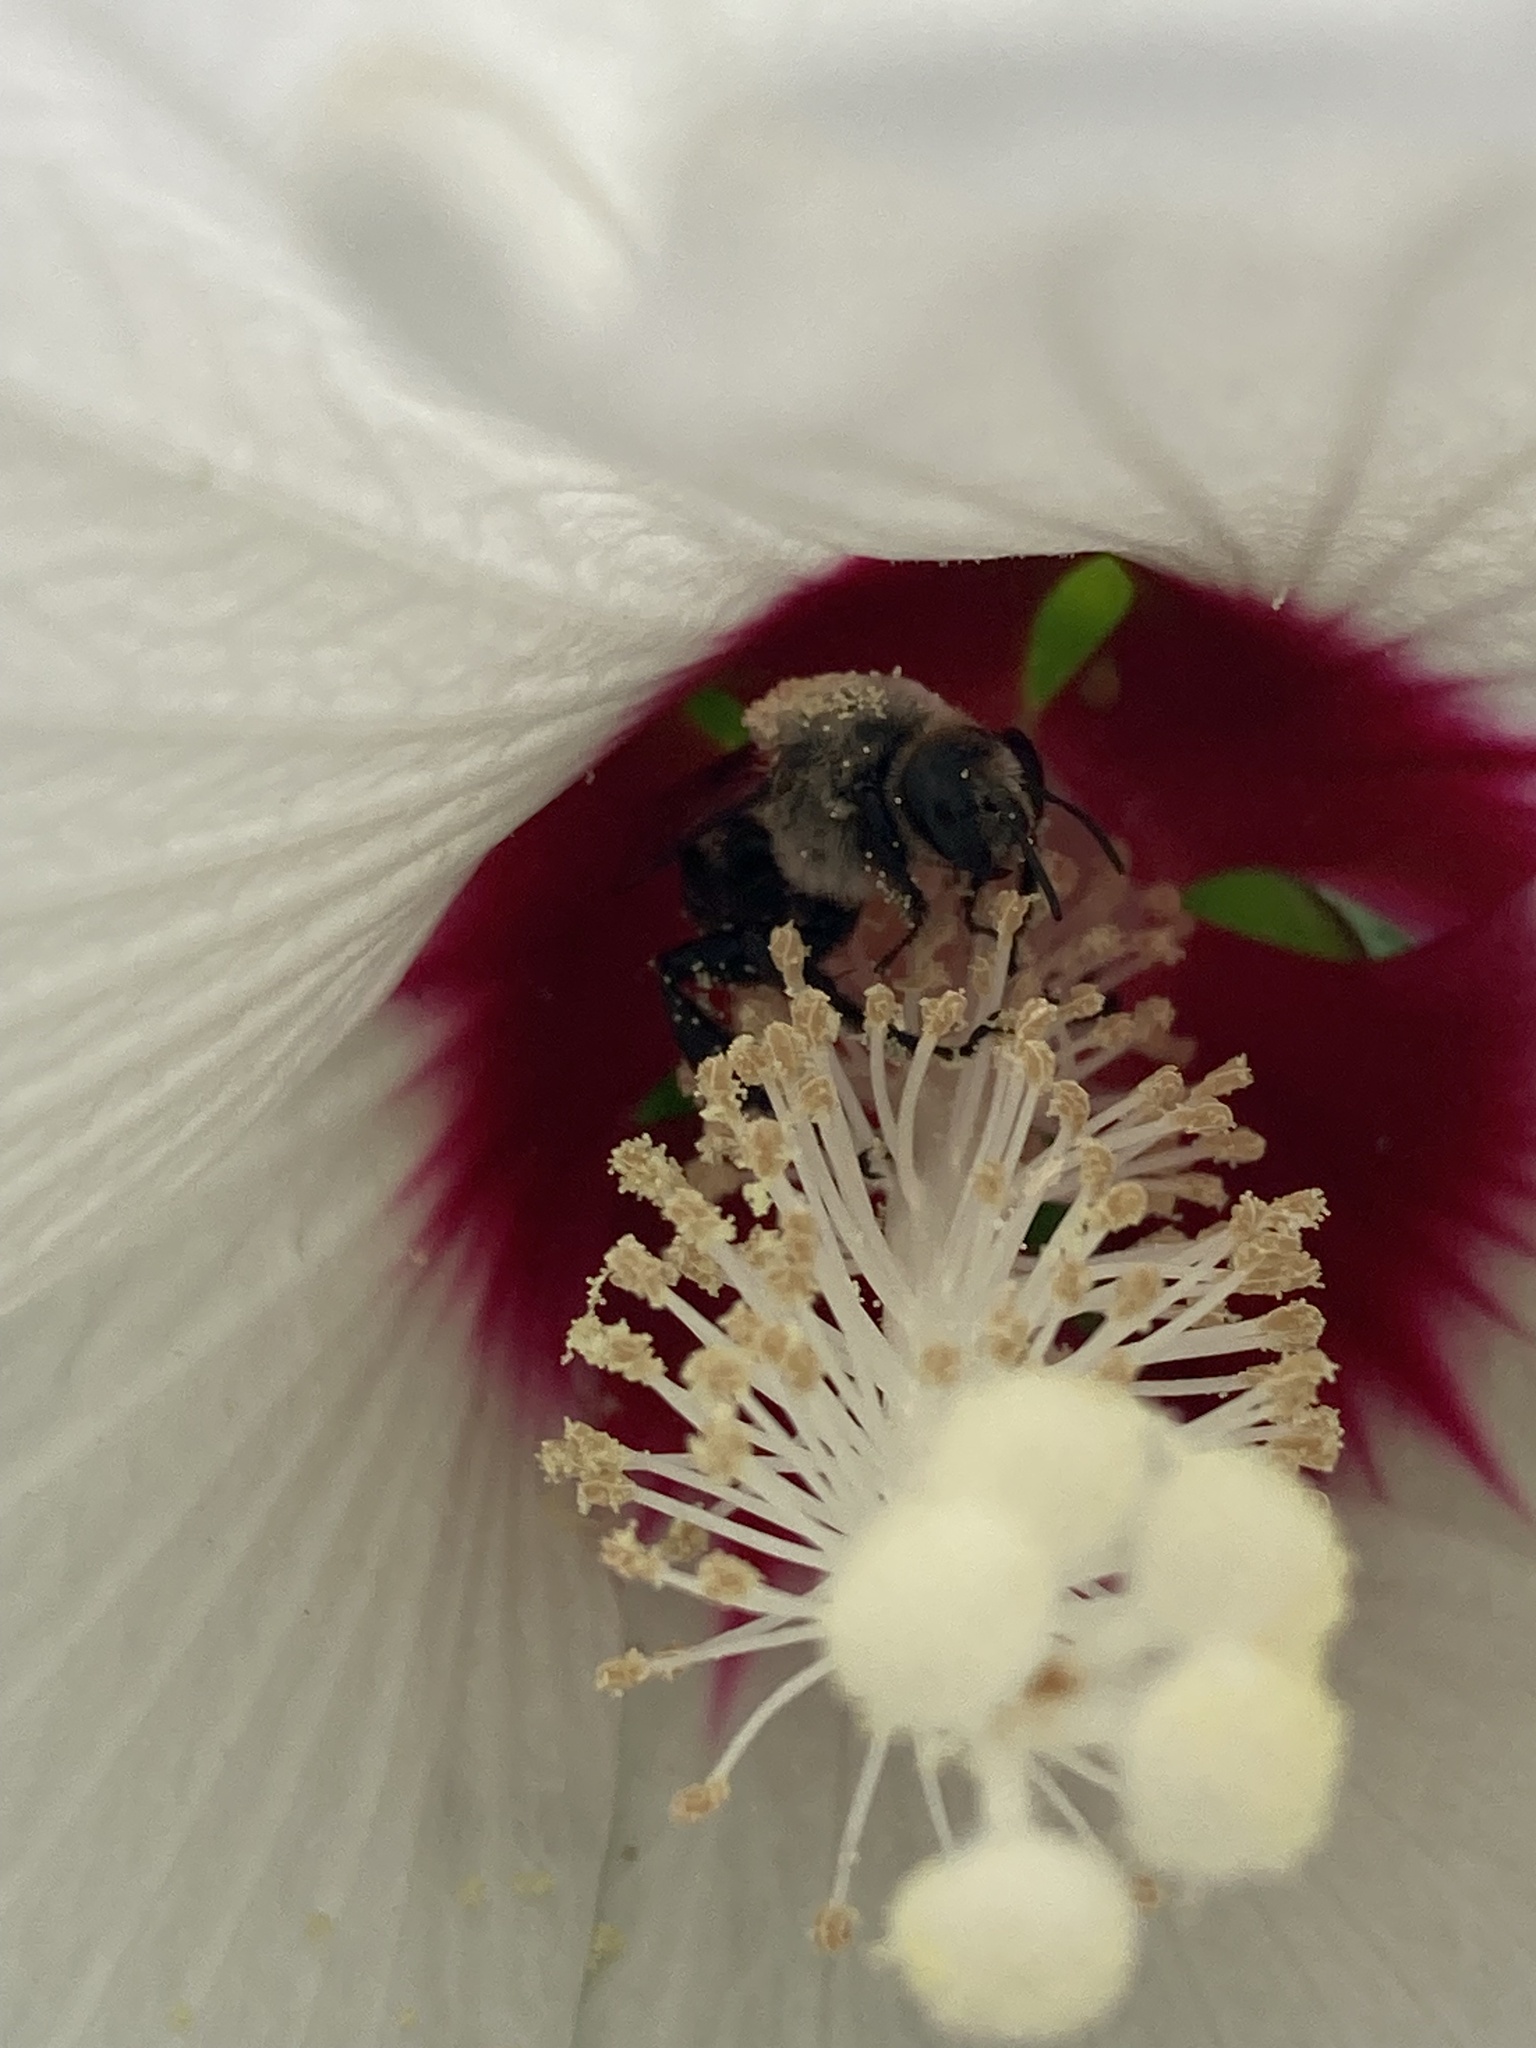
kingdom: Animalia
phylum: Arthropoda
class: Insecta
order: Hymenoptera
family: Apidae
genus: Ptilothrix
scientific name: Ptilothrix bombiformis
